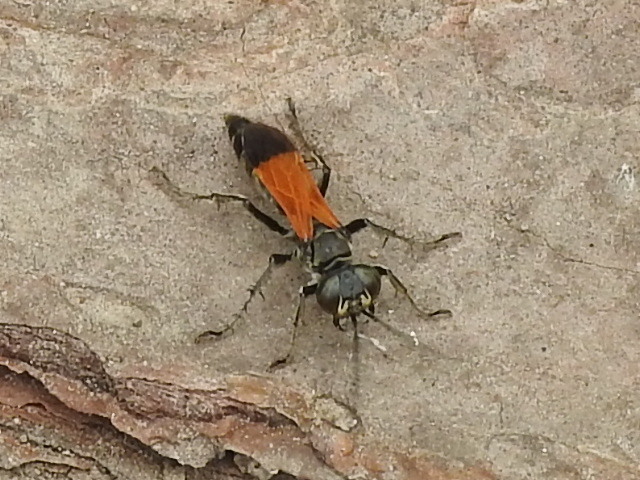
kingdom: Animalia
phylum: Arthropoda
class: Insecta
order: Hymenoptera
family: Crabronidae
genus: Liris
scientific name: Liris partitus
